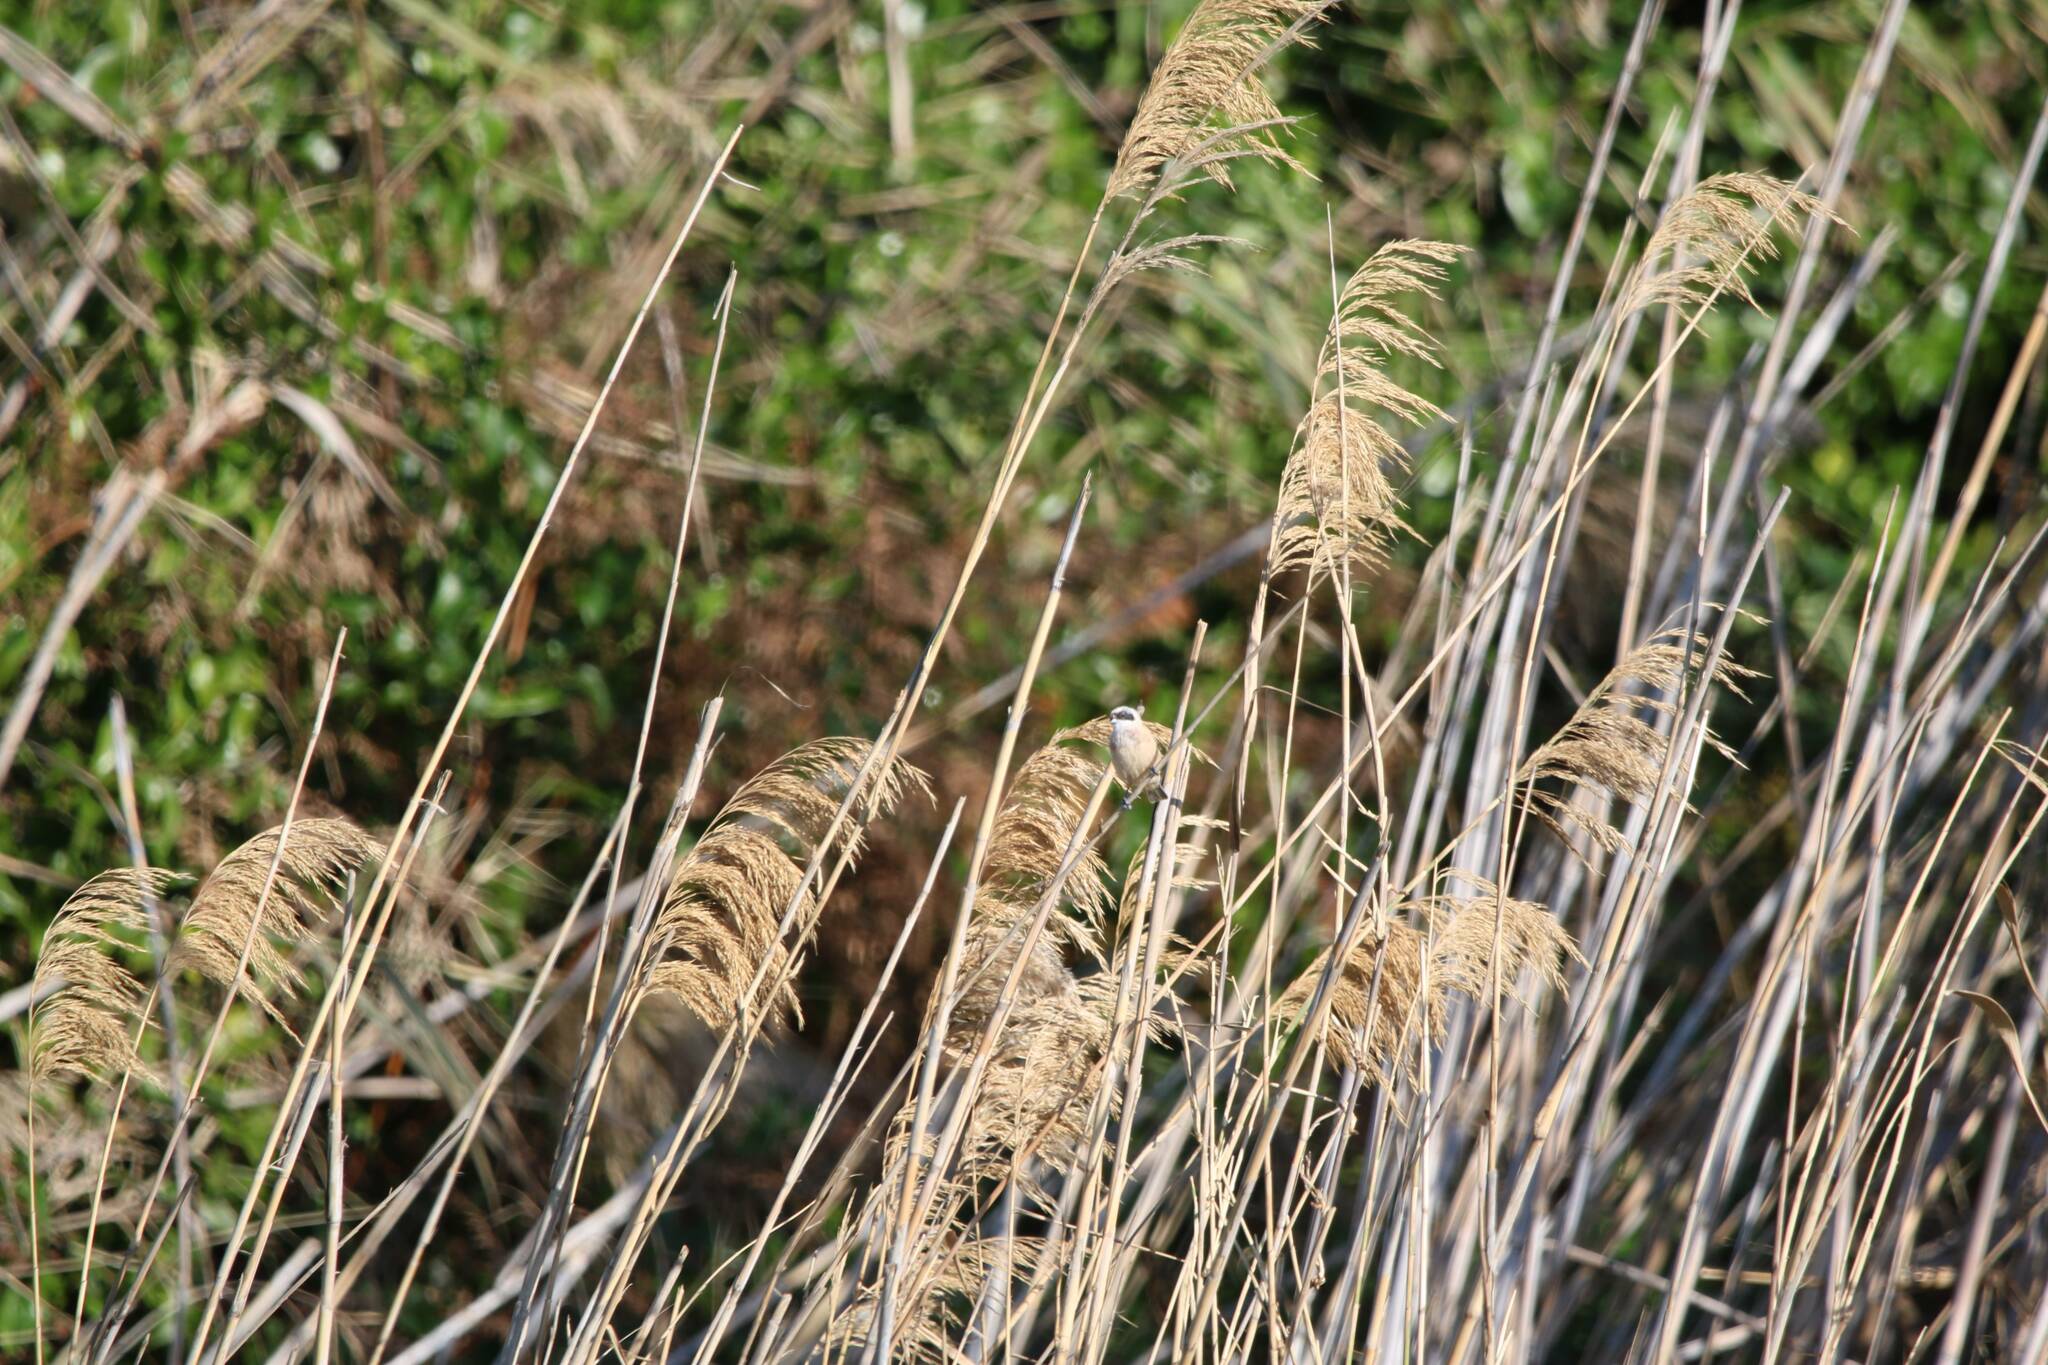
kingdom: Animalia
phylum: Chordata
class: Aves
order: Passeriformes
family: Remizidae
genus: Remiz
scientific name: Remiz pendulinus
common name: Eurasian penduline tit
